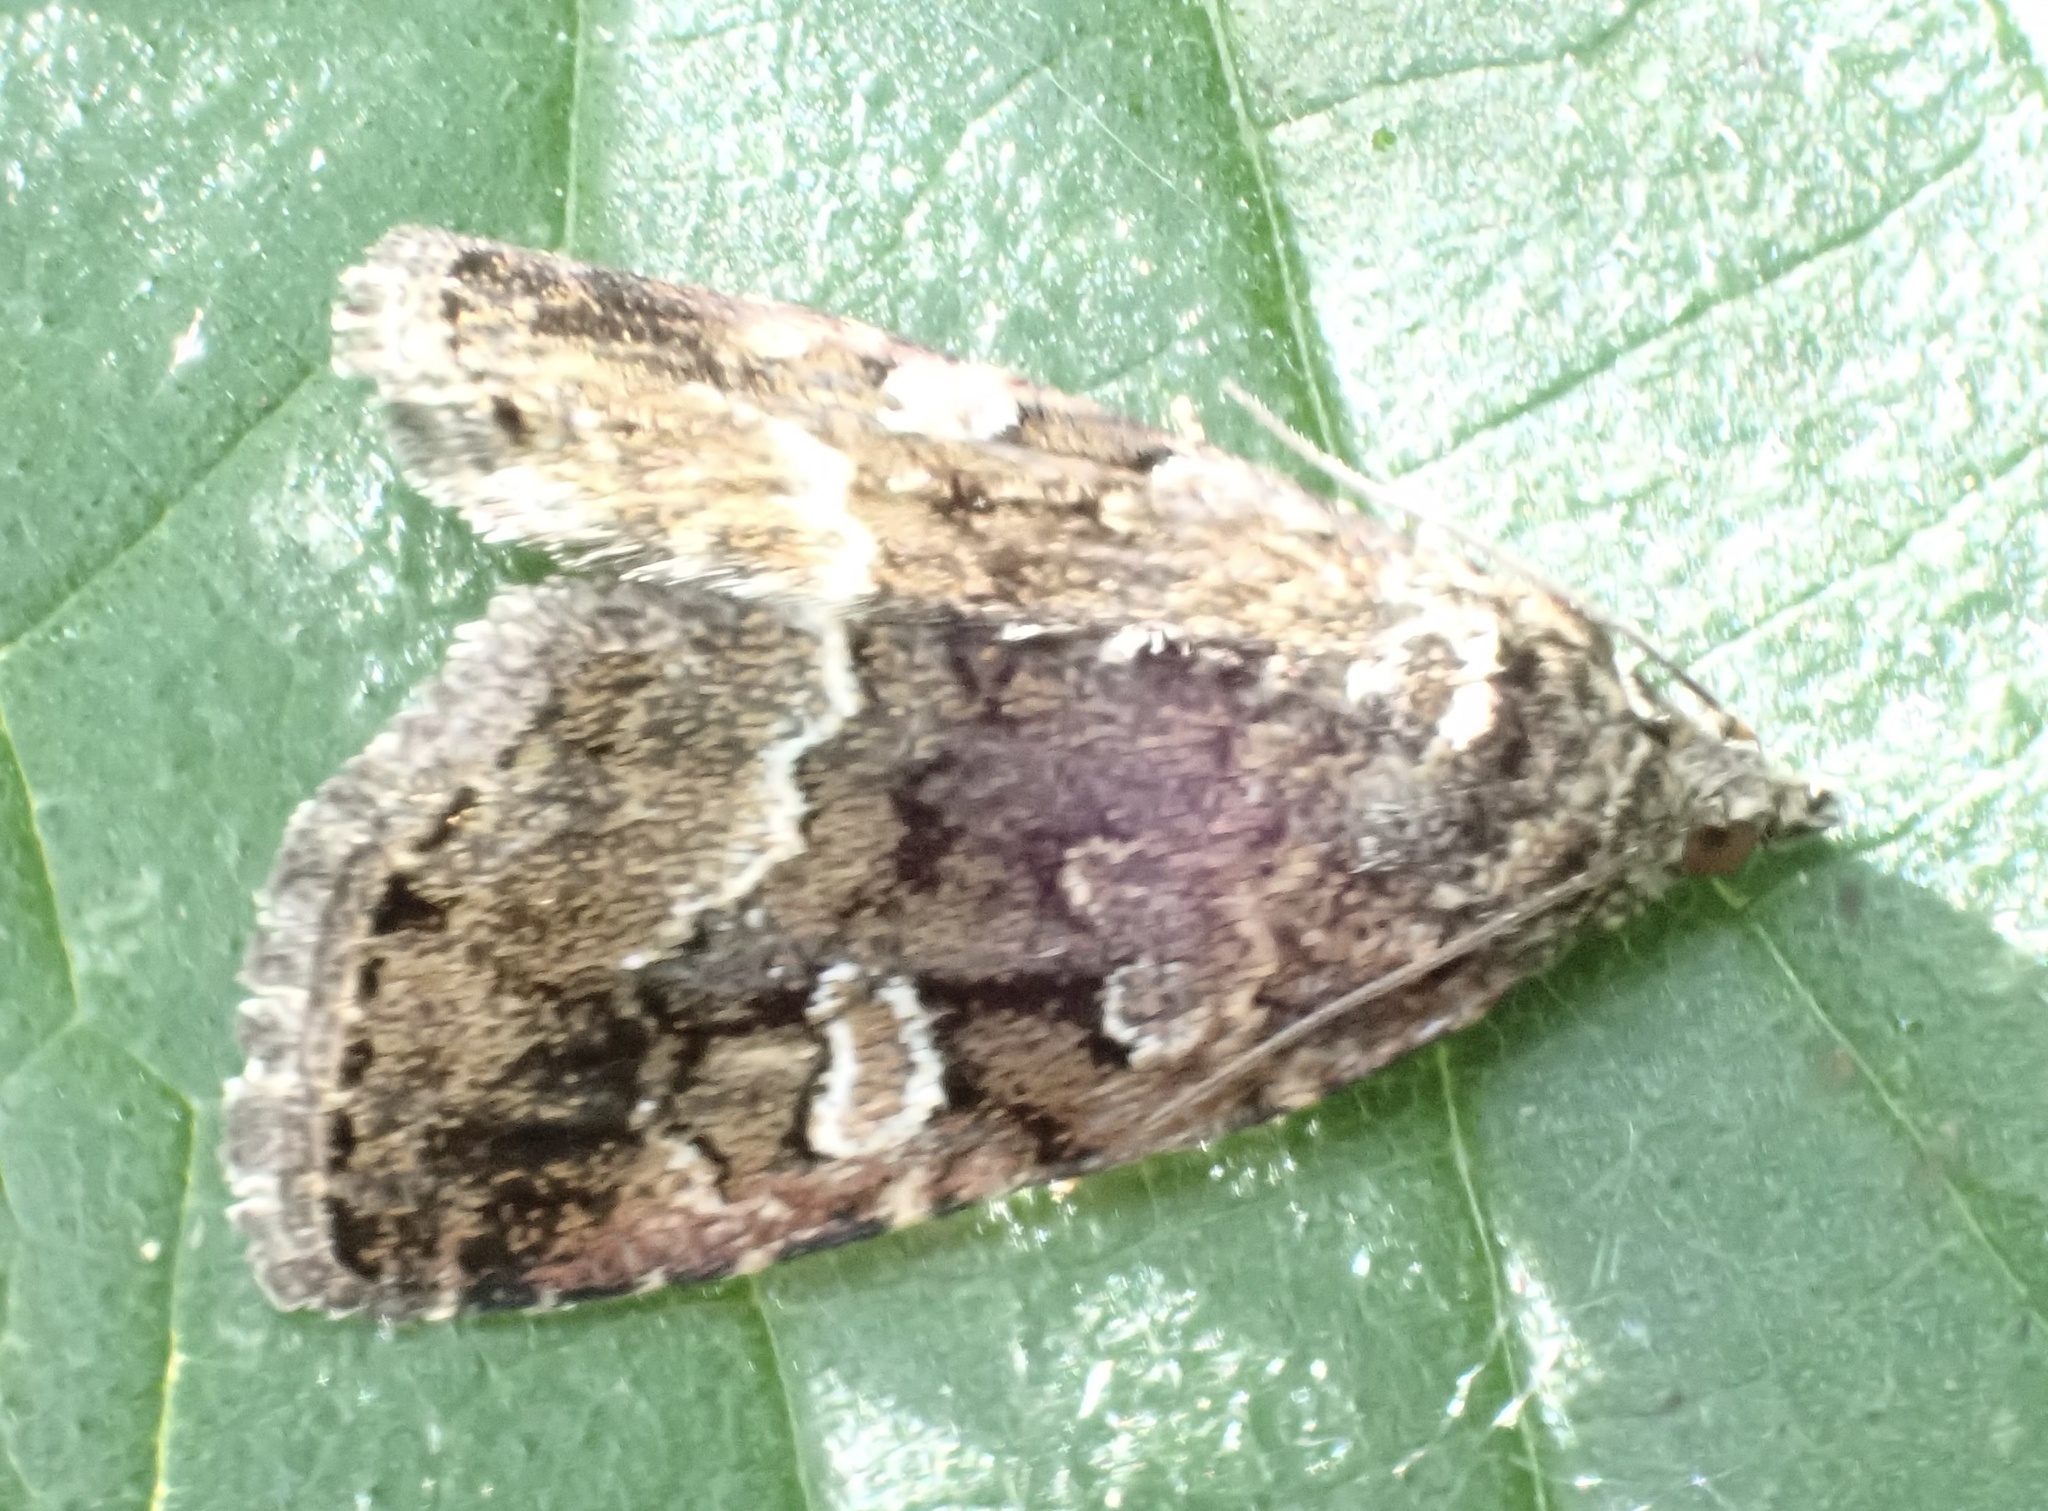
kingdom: Animalia
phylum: Arthropoda
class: Insecta
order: Lepidoptera
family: Noctuidae
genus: Deltote
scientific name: Deltote pygarga
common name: Marbled white spot
